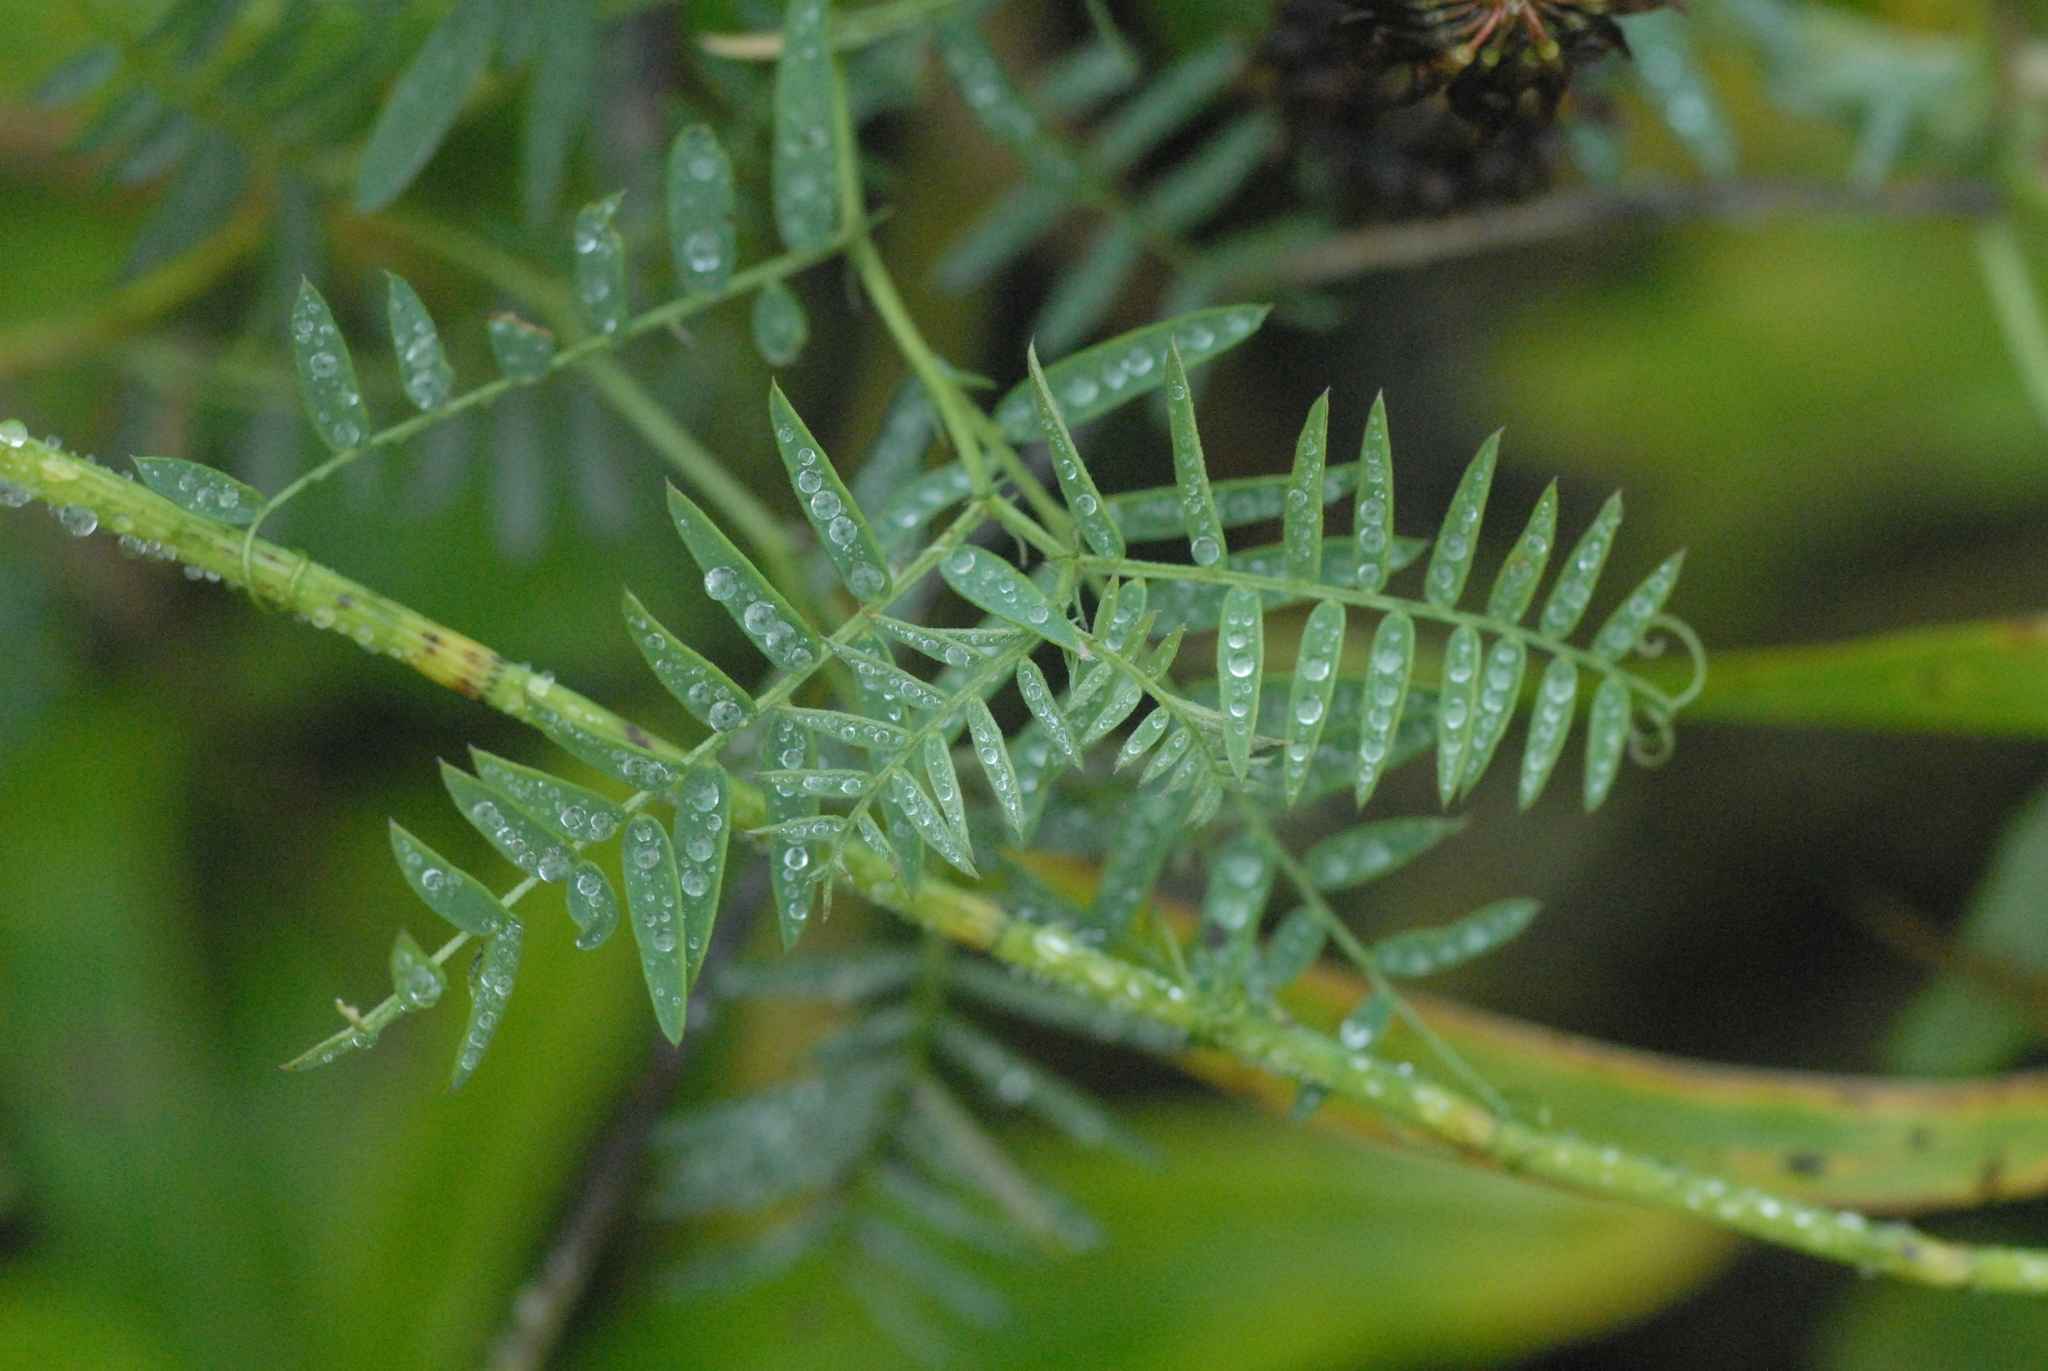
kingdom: Plantae
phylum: Tracheophyta
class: Magnoliopsida
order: Fabales
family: Fabaceae
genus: Vicia
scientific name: Vicia cracca
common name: Bird vetch
